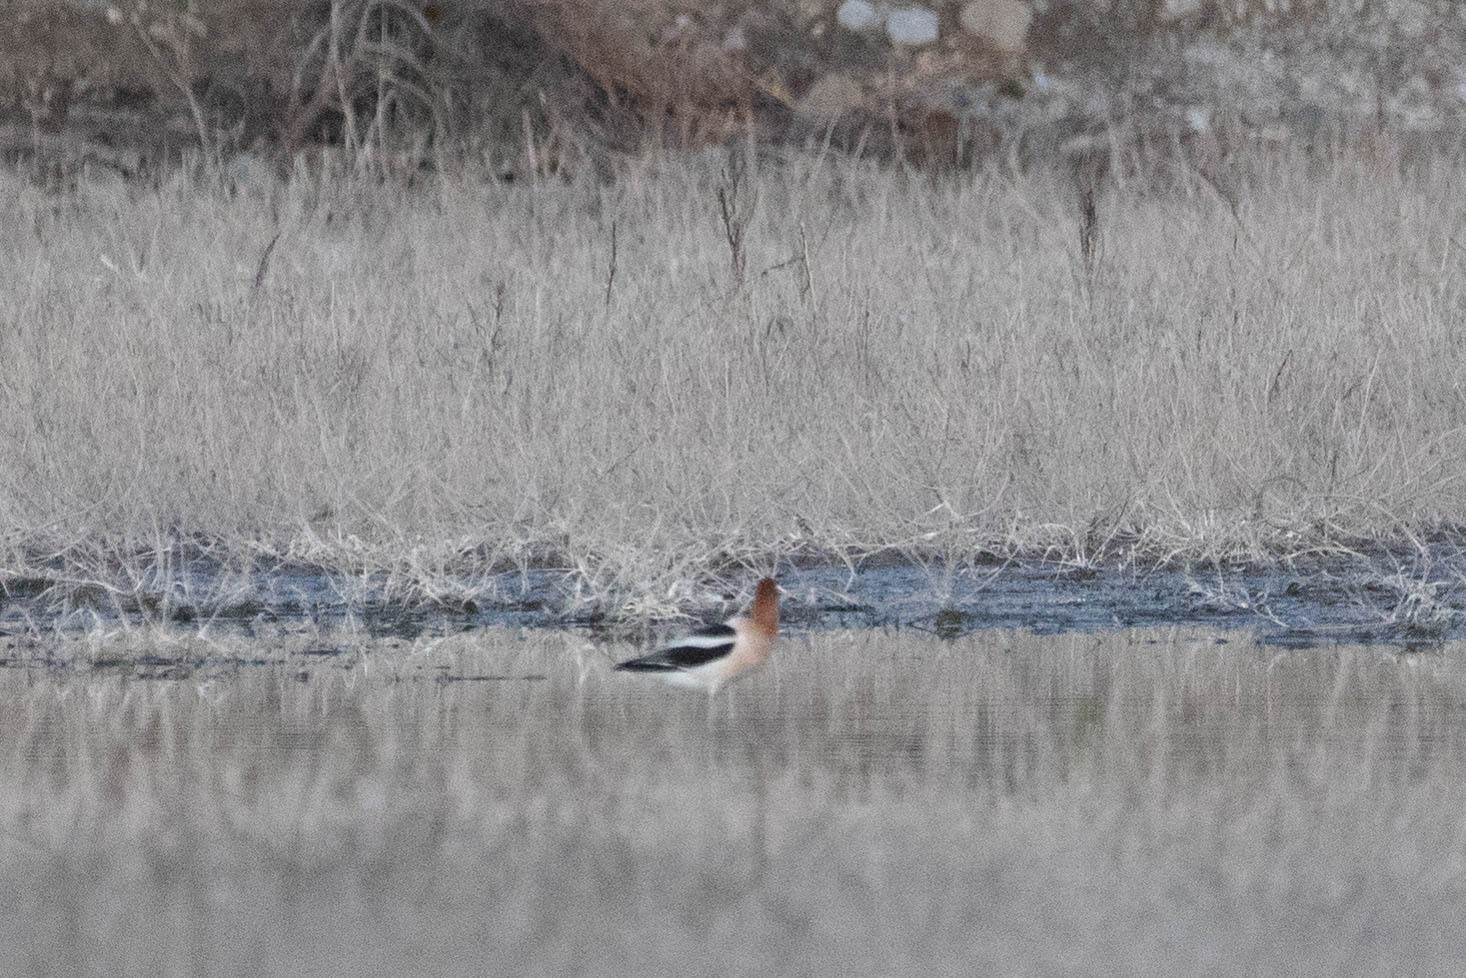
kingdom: Animalia
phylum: Chordata
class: Aves
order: Charadriiformes
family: Recurvirostridae
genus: Recurvirostra
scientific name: Recurvirostra americana
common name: American avocet
